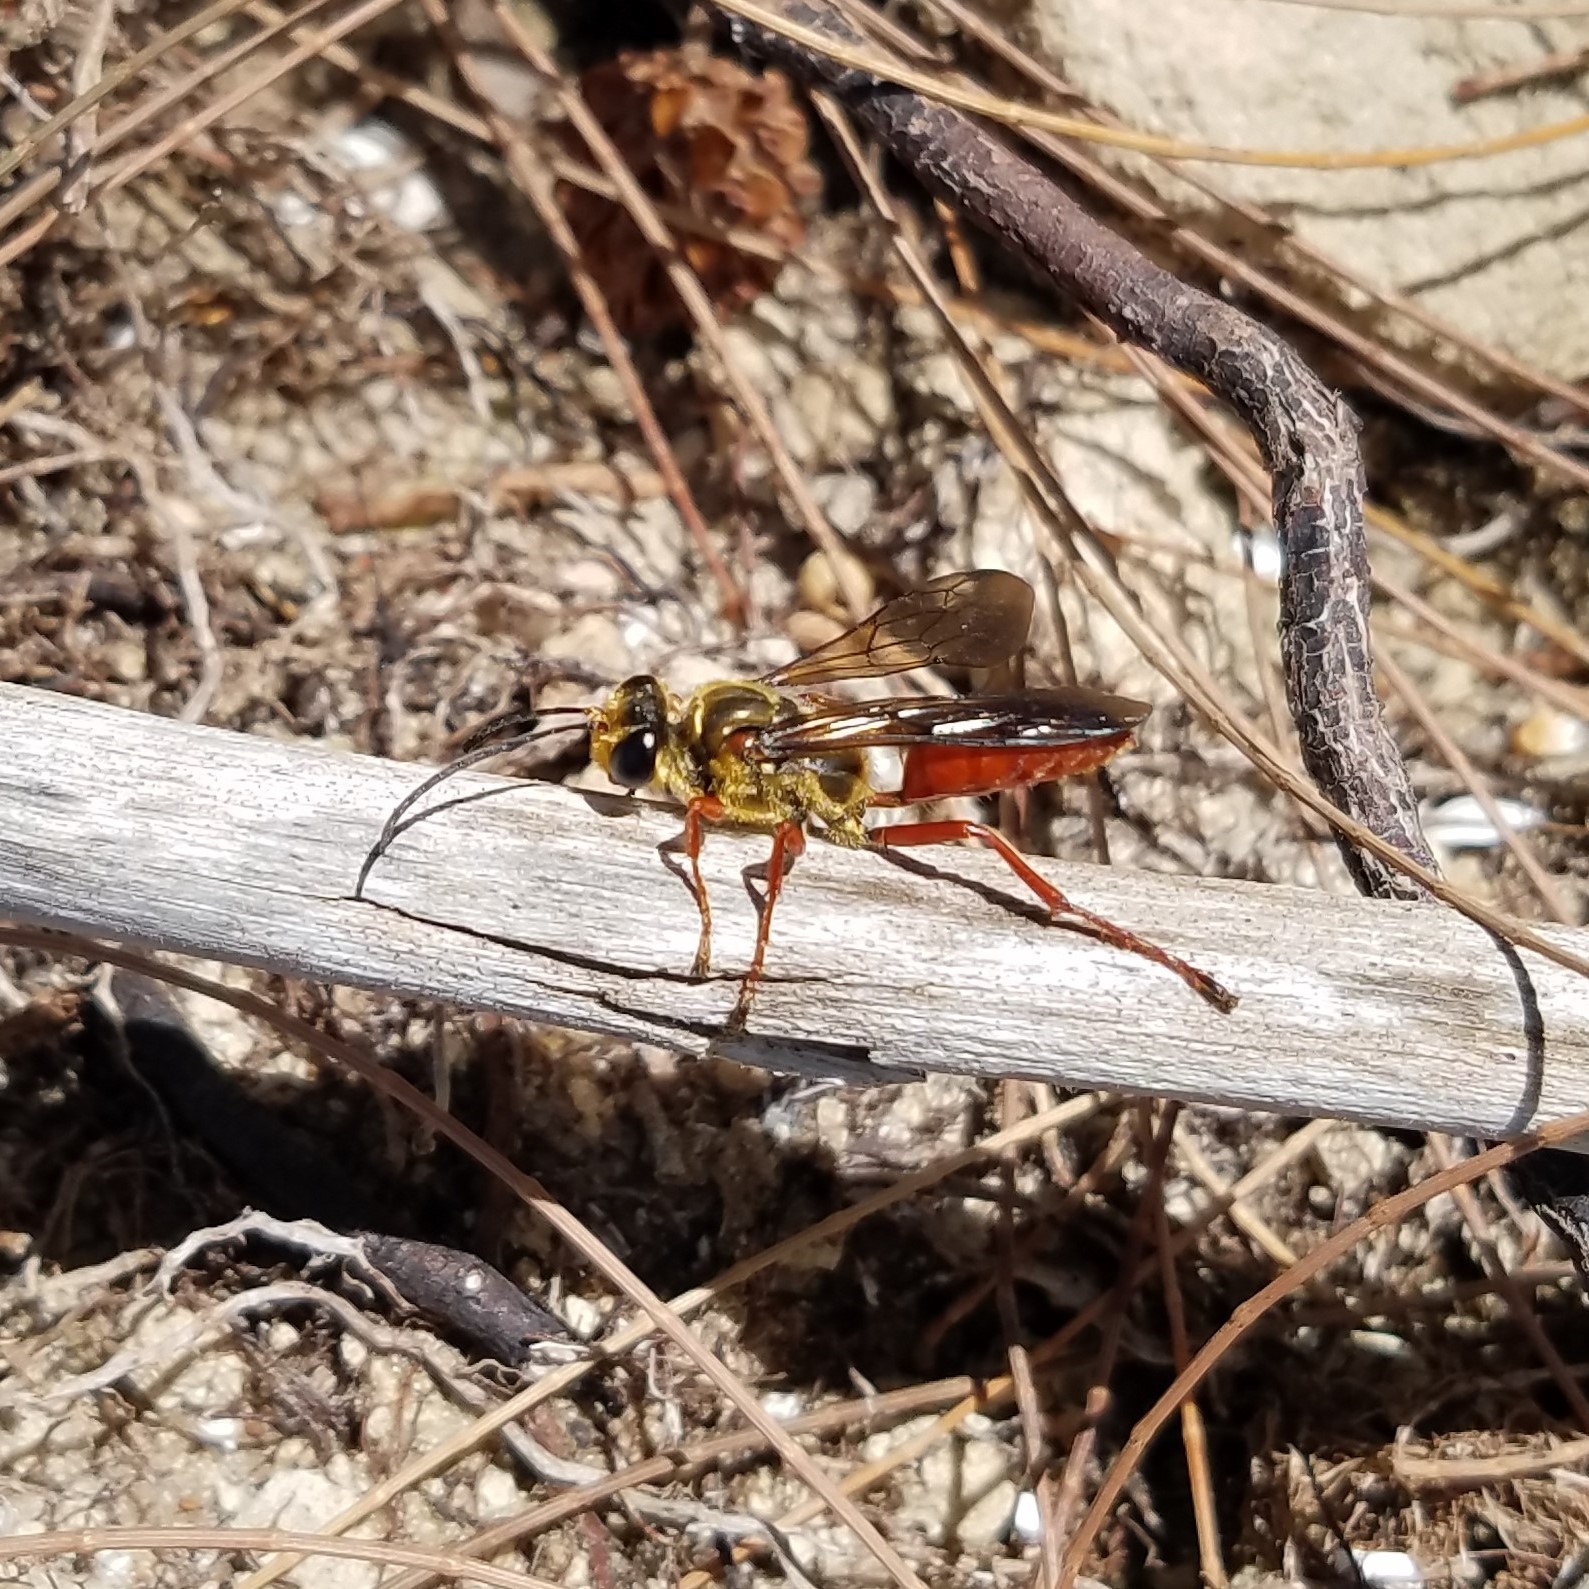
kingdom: Animalia
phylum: Arthropoda
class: Insecta
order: Hymenoptera
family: Sphecidae
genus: Sphex
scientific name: Sphex jamaicensis
